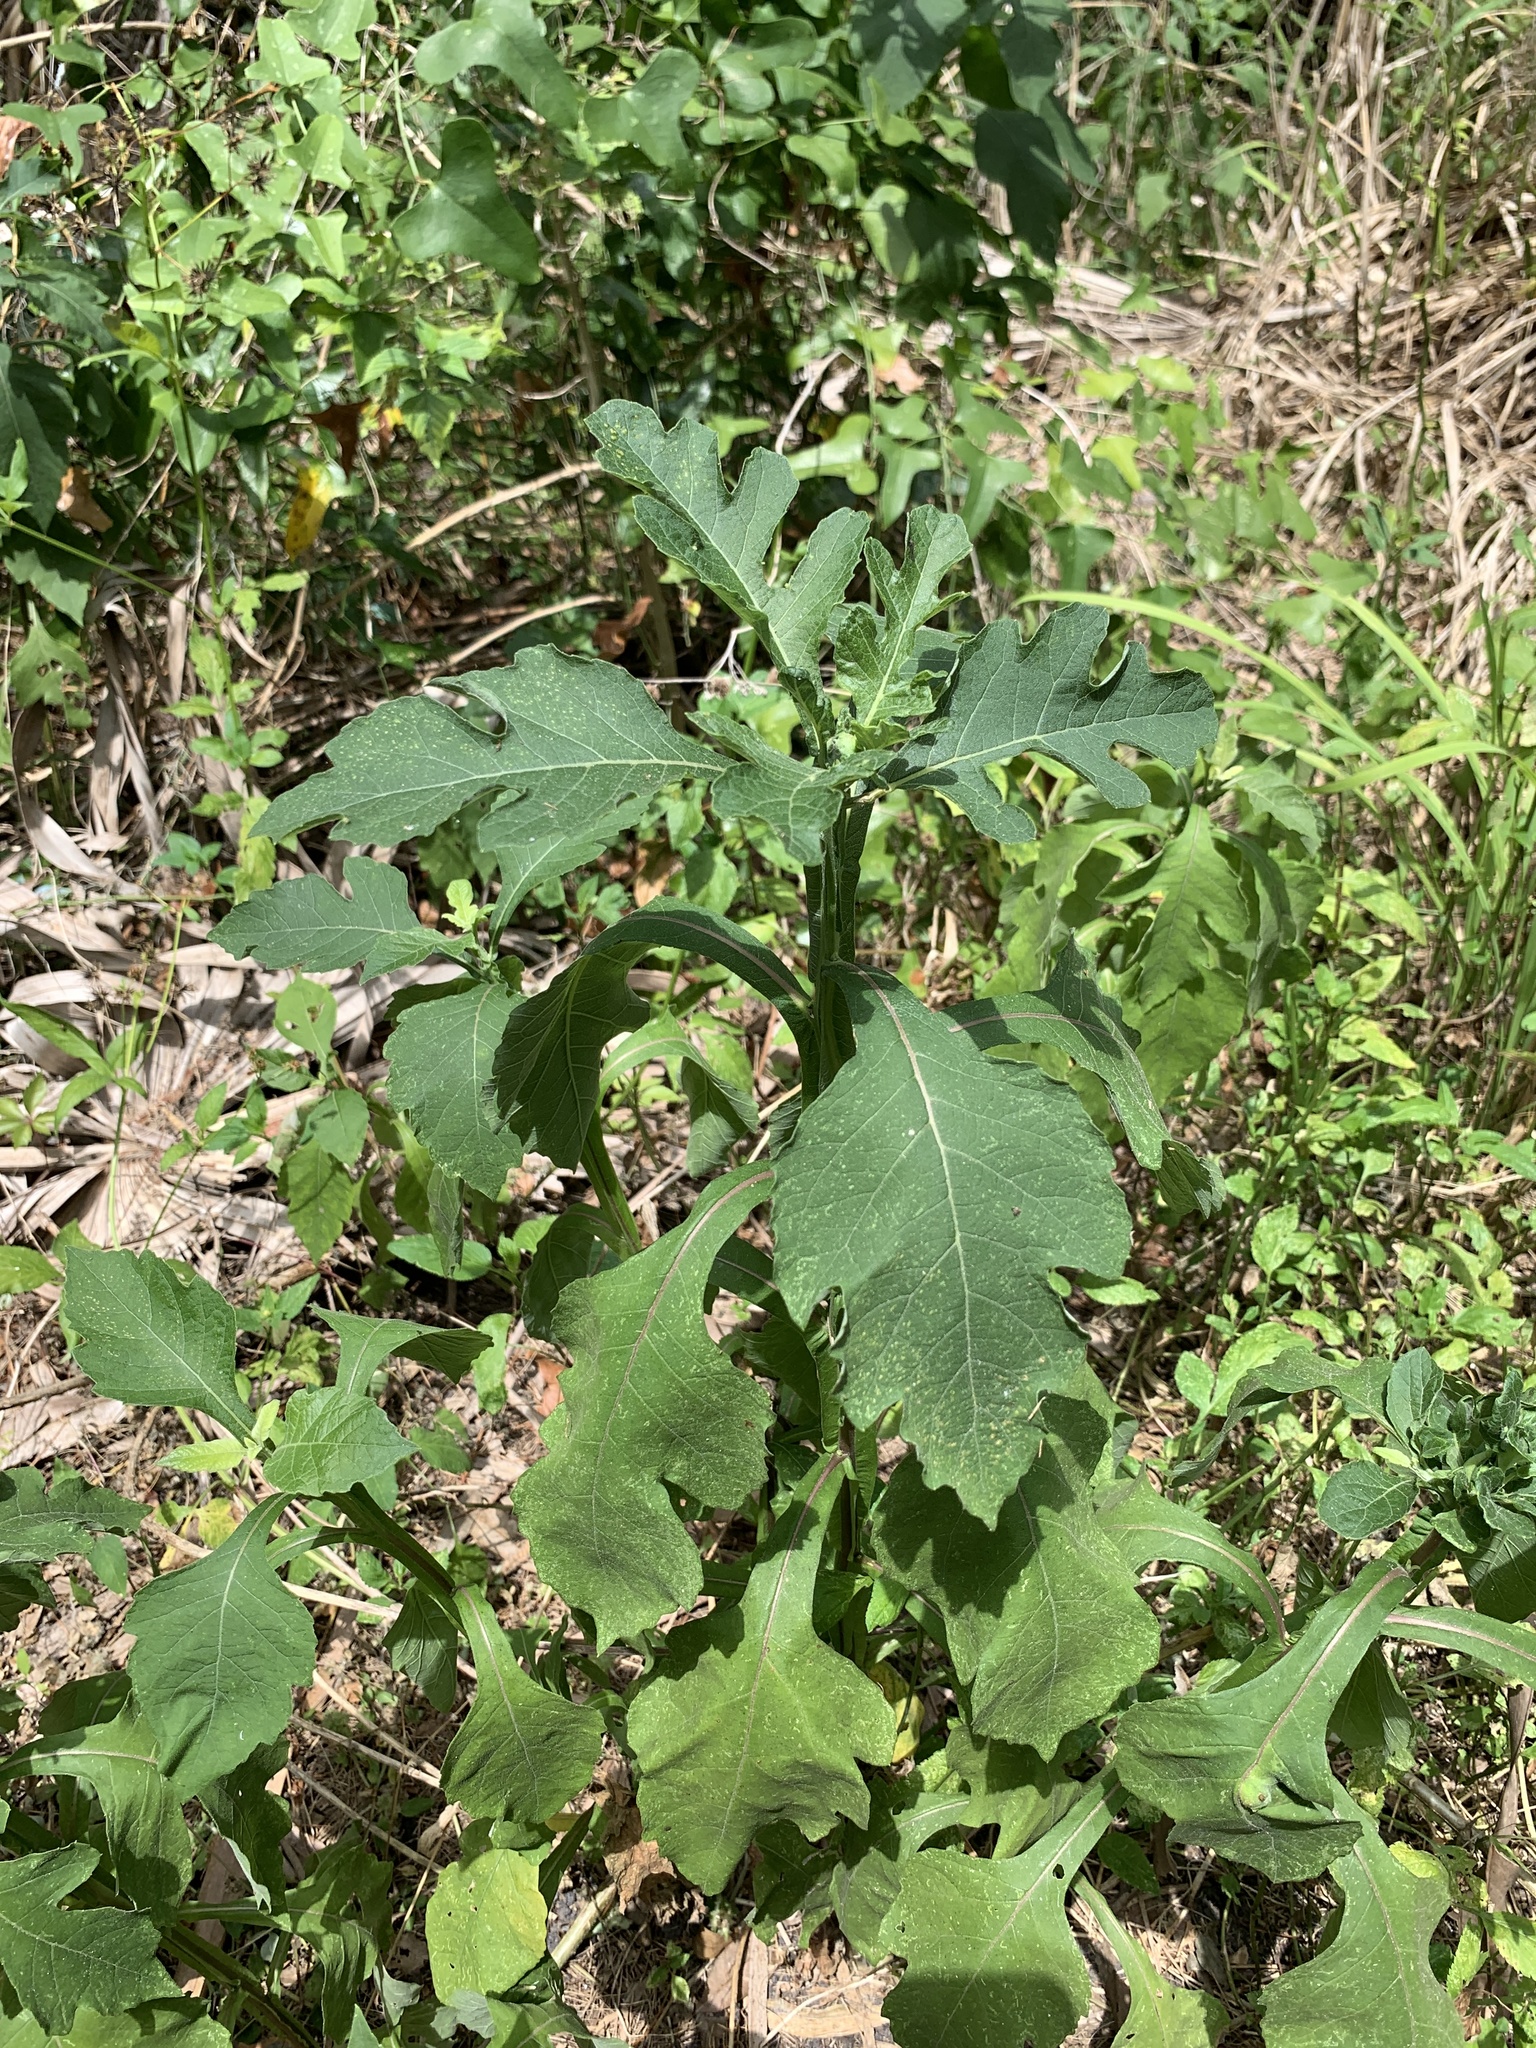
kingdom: Plantae
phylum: Tracheophyta
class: Magnoliopsida
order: Asterales
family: Asteraceae
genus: Verbesina
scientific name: Verbesina virginica
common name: Frostweed
